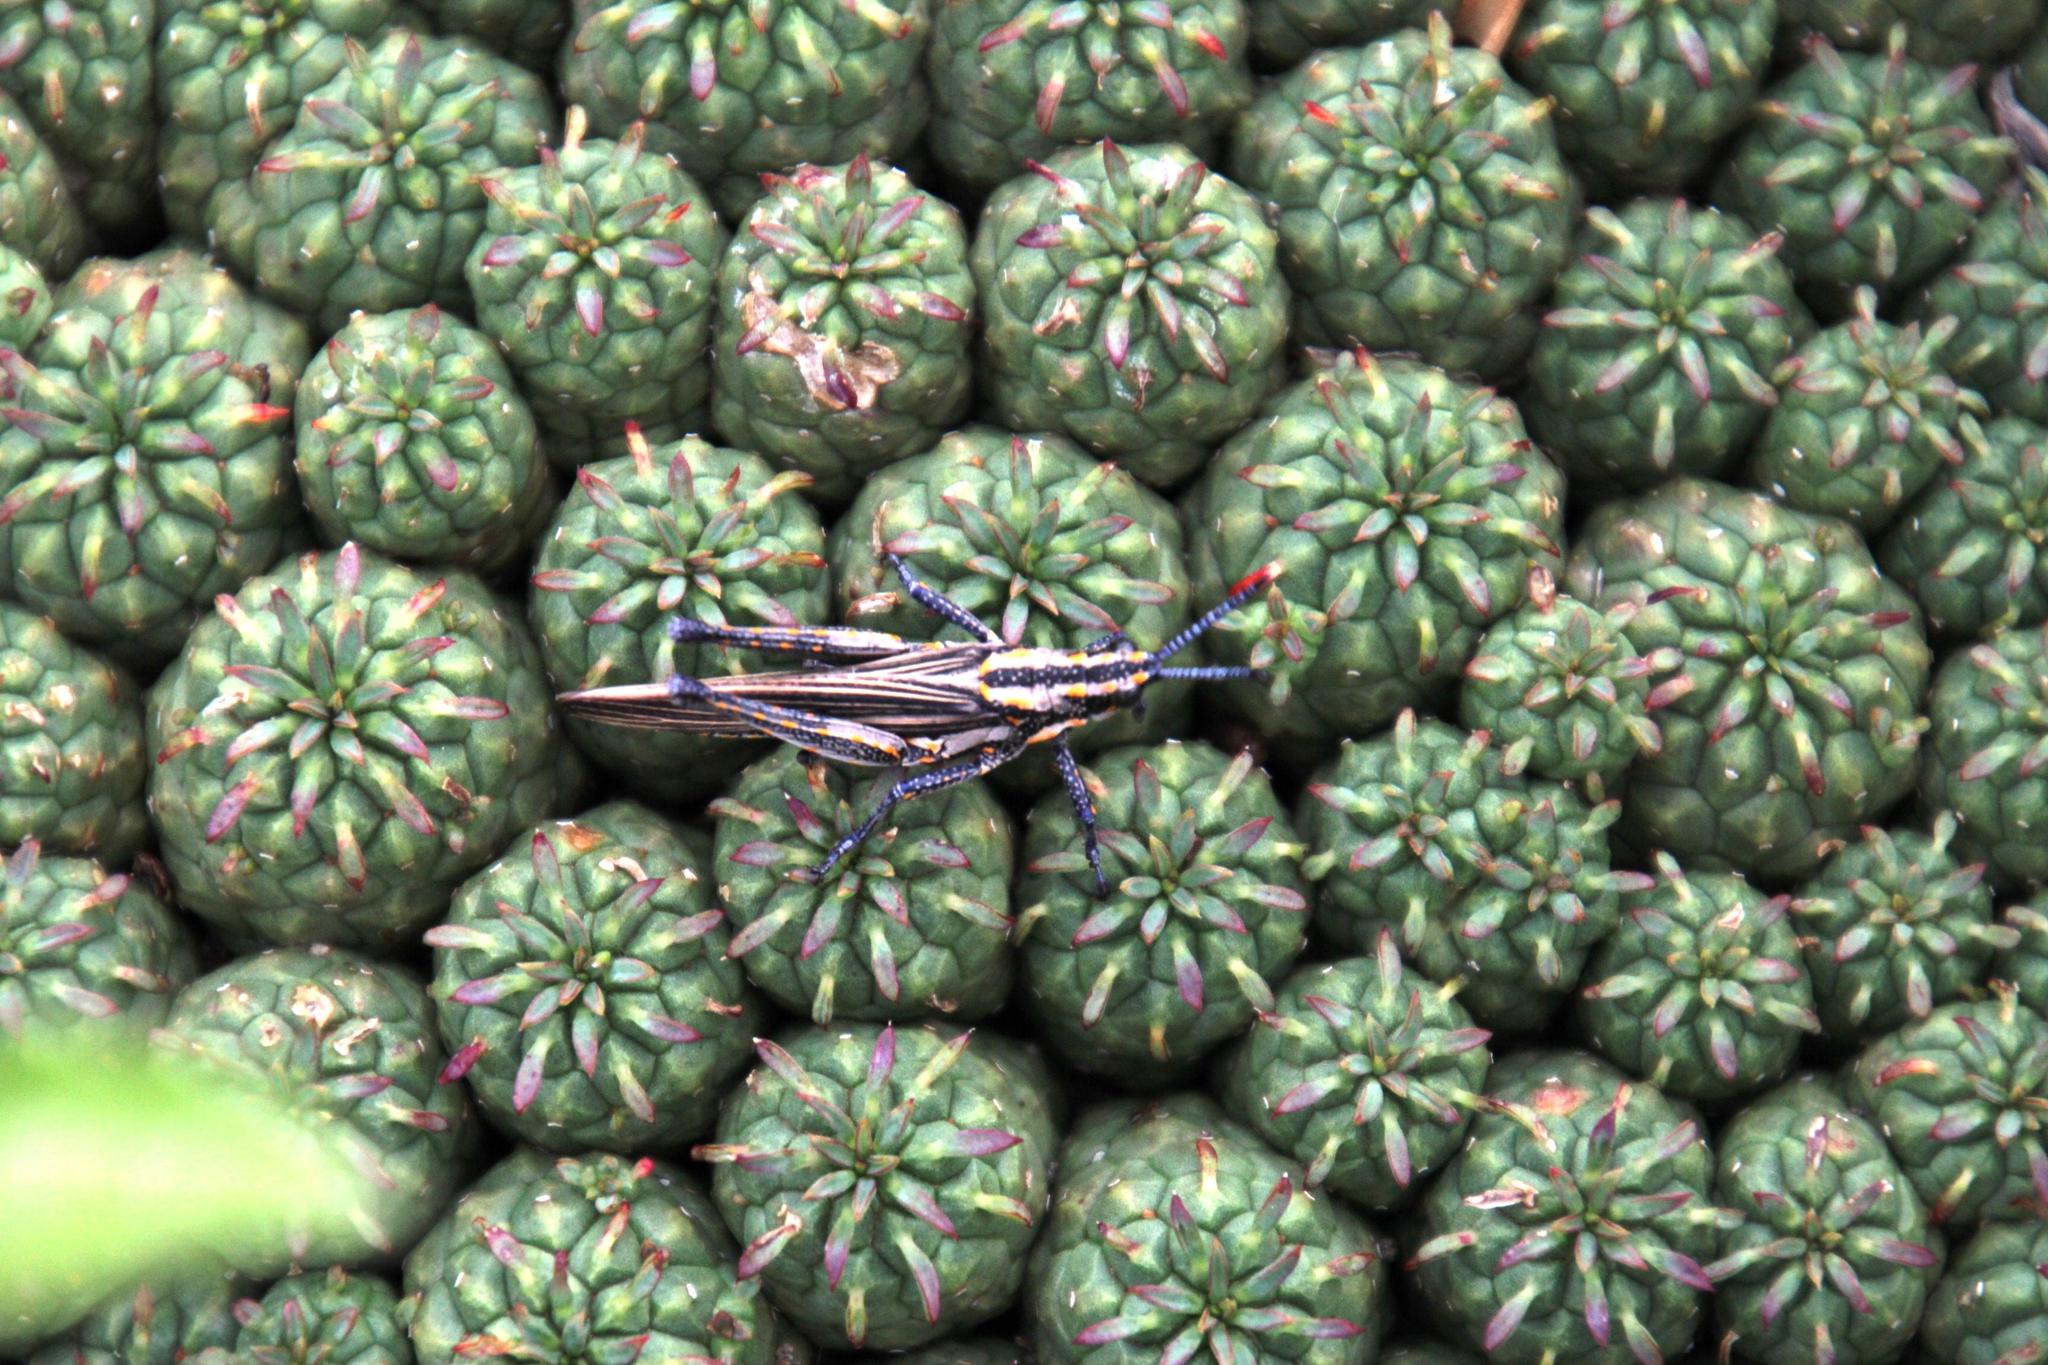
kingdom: Animalia
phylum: Arthropoda
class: Insecta
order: Orthoptera
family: Pyrgomorphidae
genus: Ochrophlebia
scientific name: Ochrophlebia cafra
